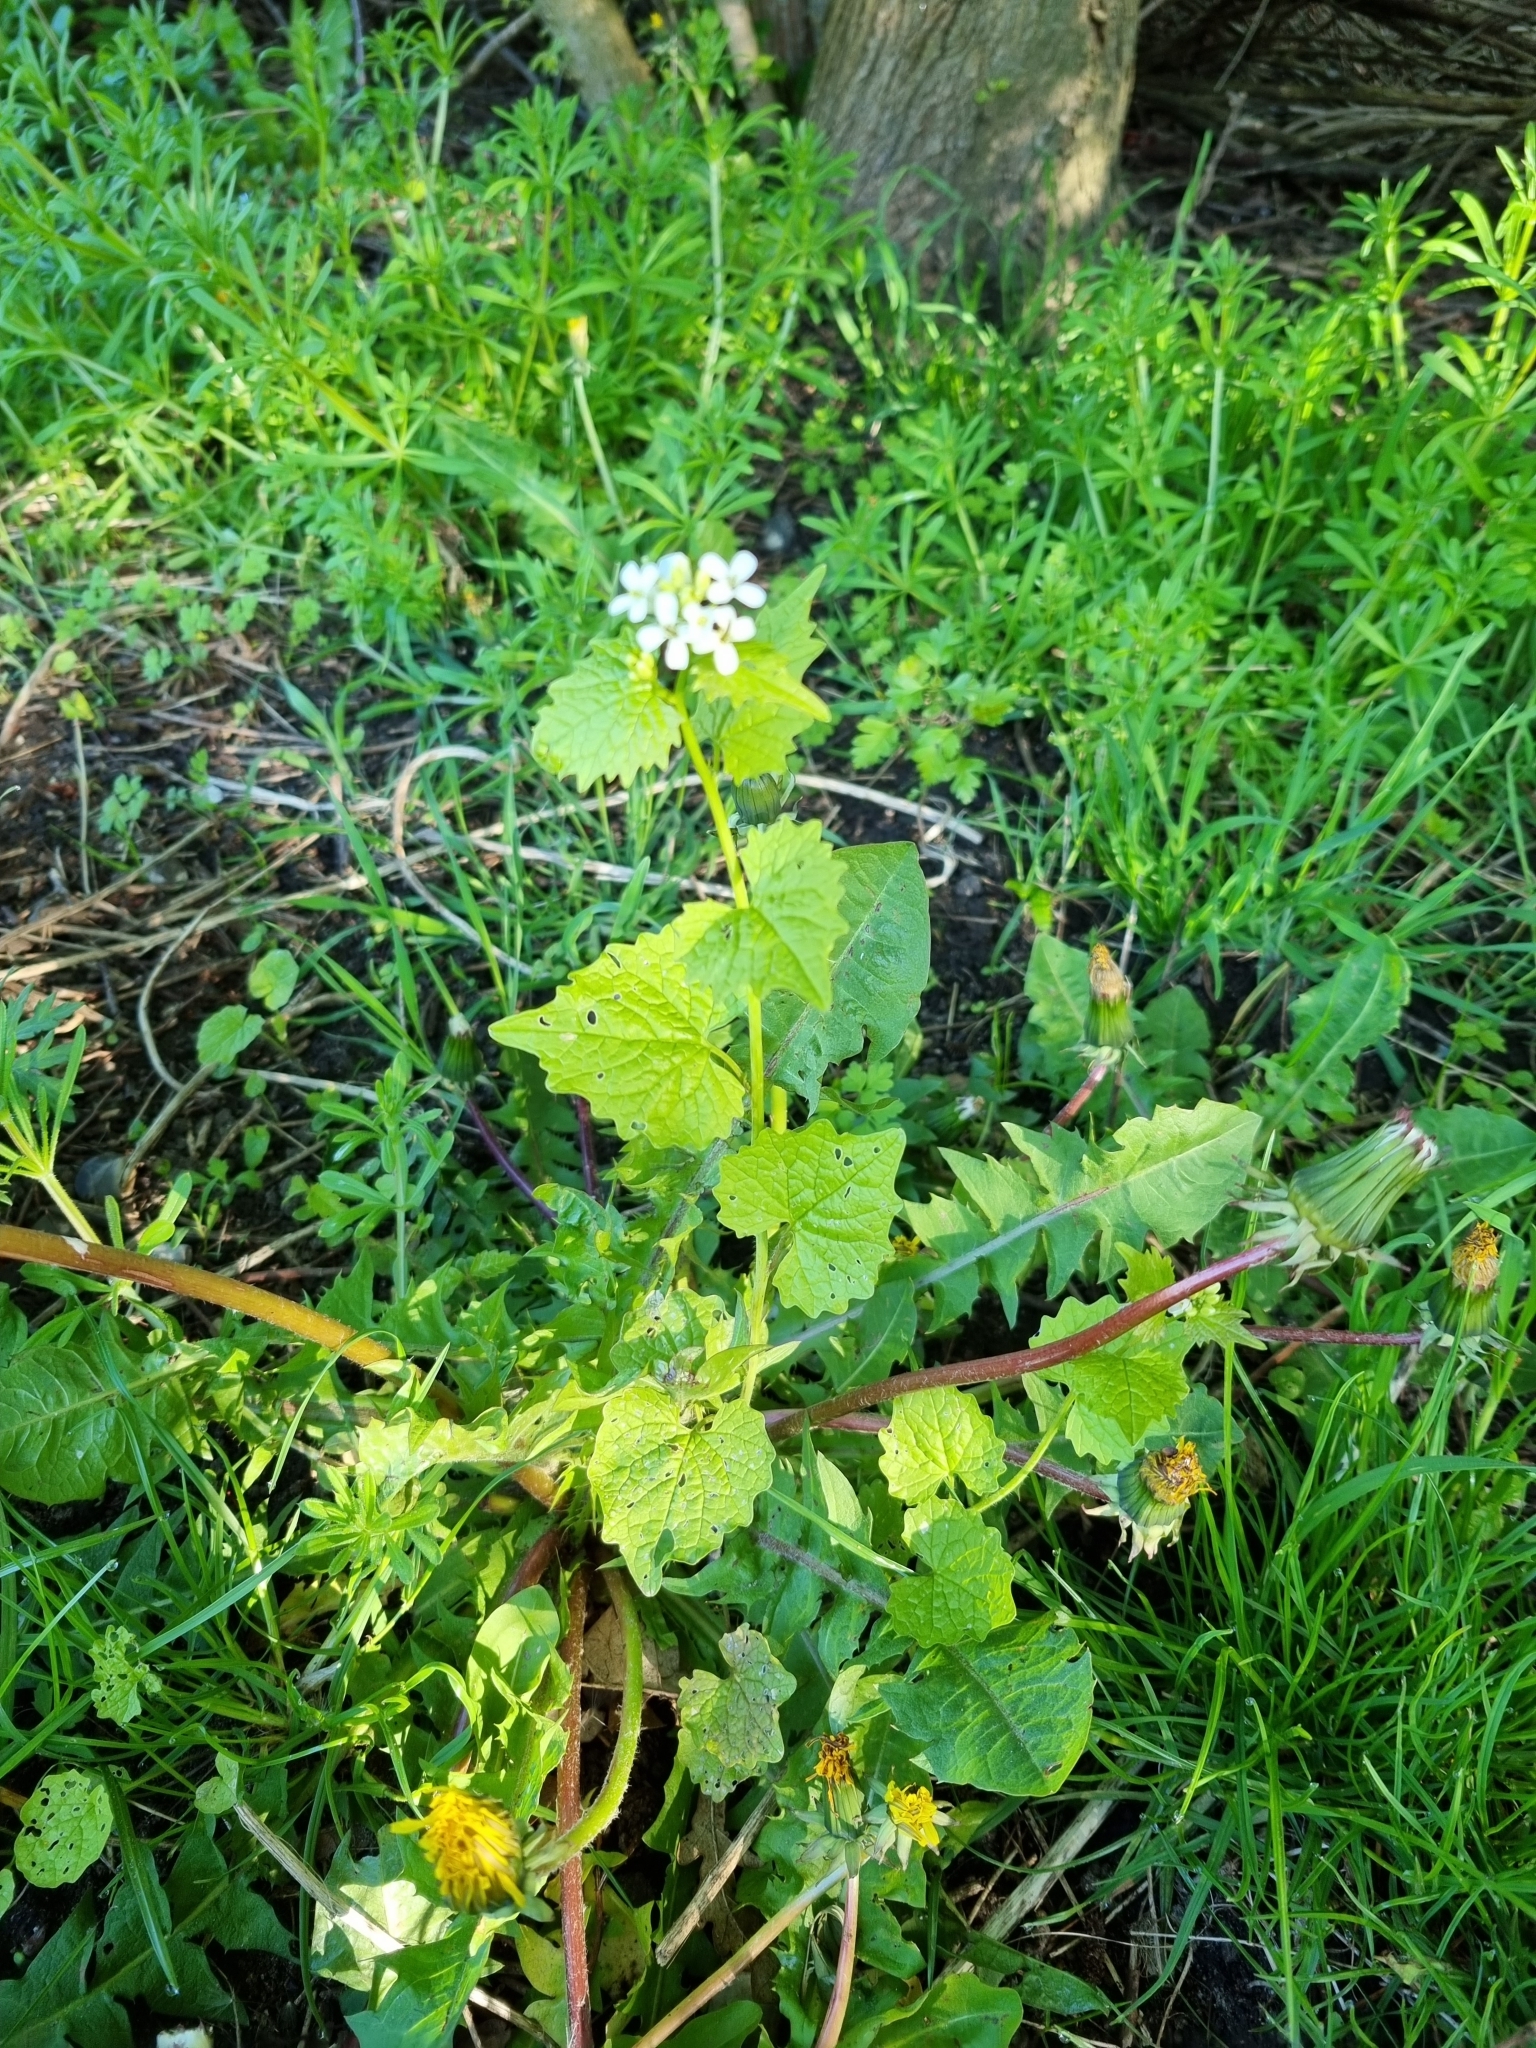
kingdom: Plantae
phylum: Tracheophyta
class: Magnoliopsida
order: Brassicales
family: Brassicaceae
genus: Alliaria
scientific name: Alliaria petiolata
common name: Garlic mustard
